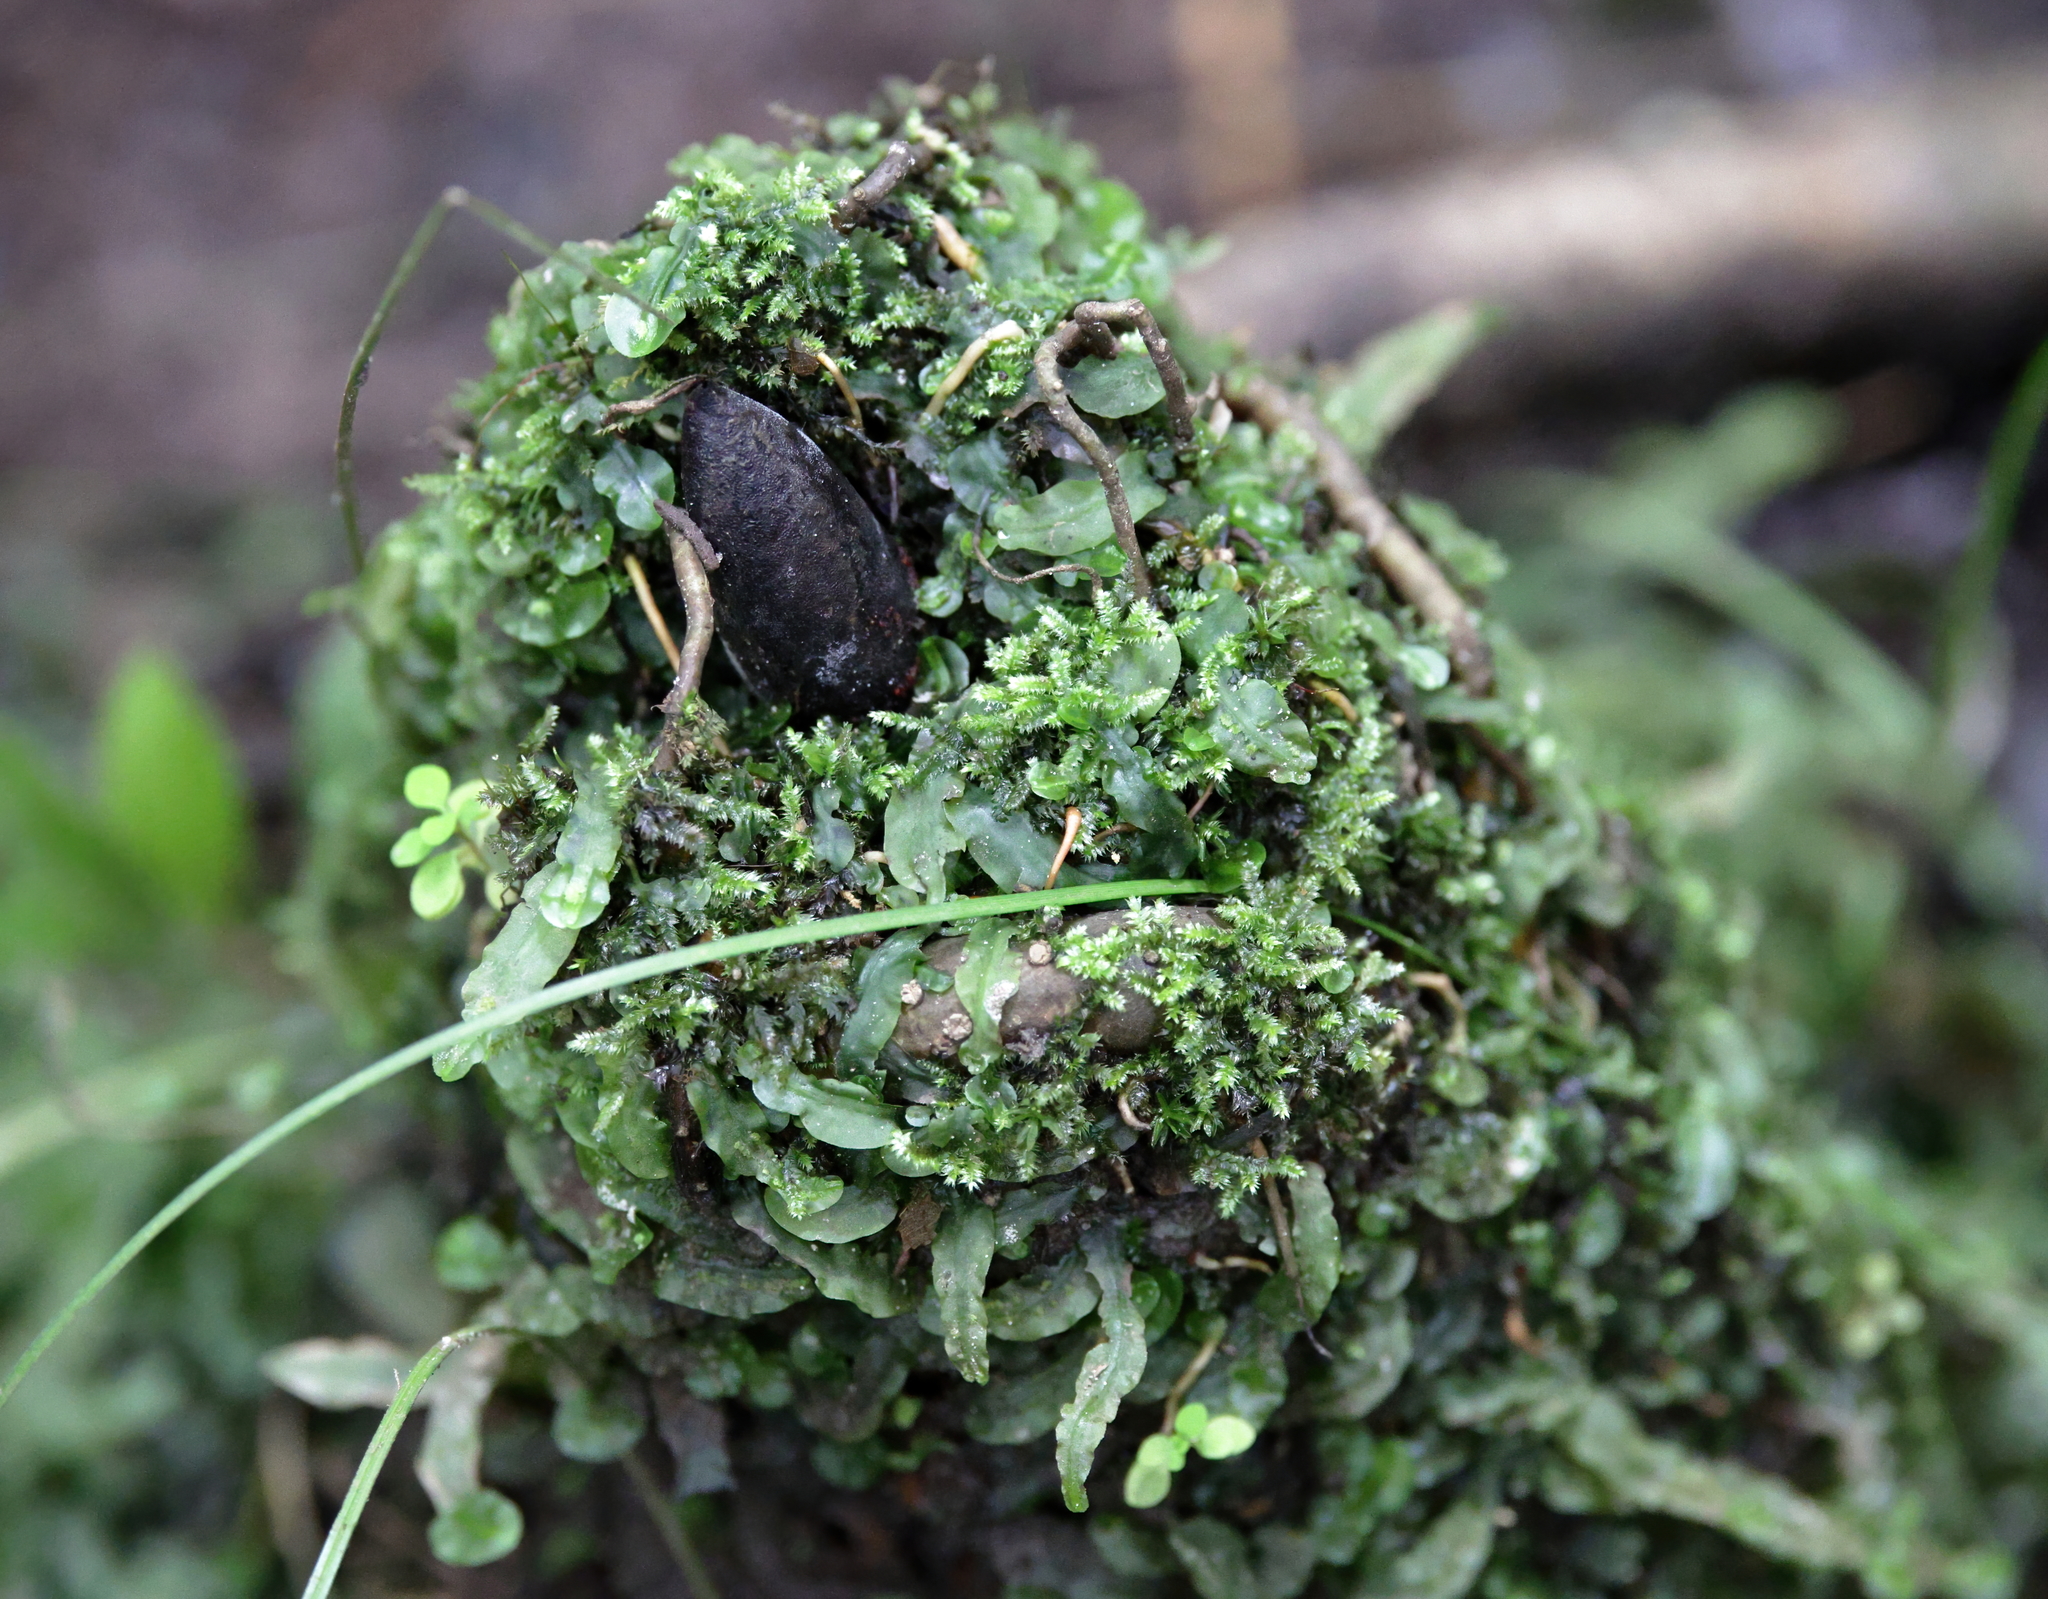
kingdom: Plantae
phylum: Marchantiophyta
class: Jungermanniopsida
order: Pallaviciniales
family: Pallaviciniaceae
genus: Pallavicinia
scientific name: Pallavicinia lyellii
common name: Veilwort
